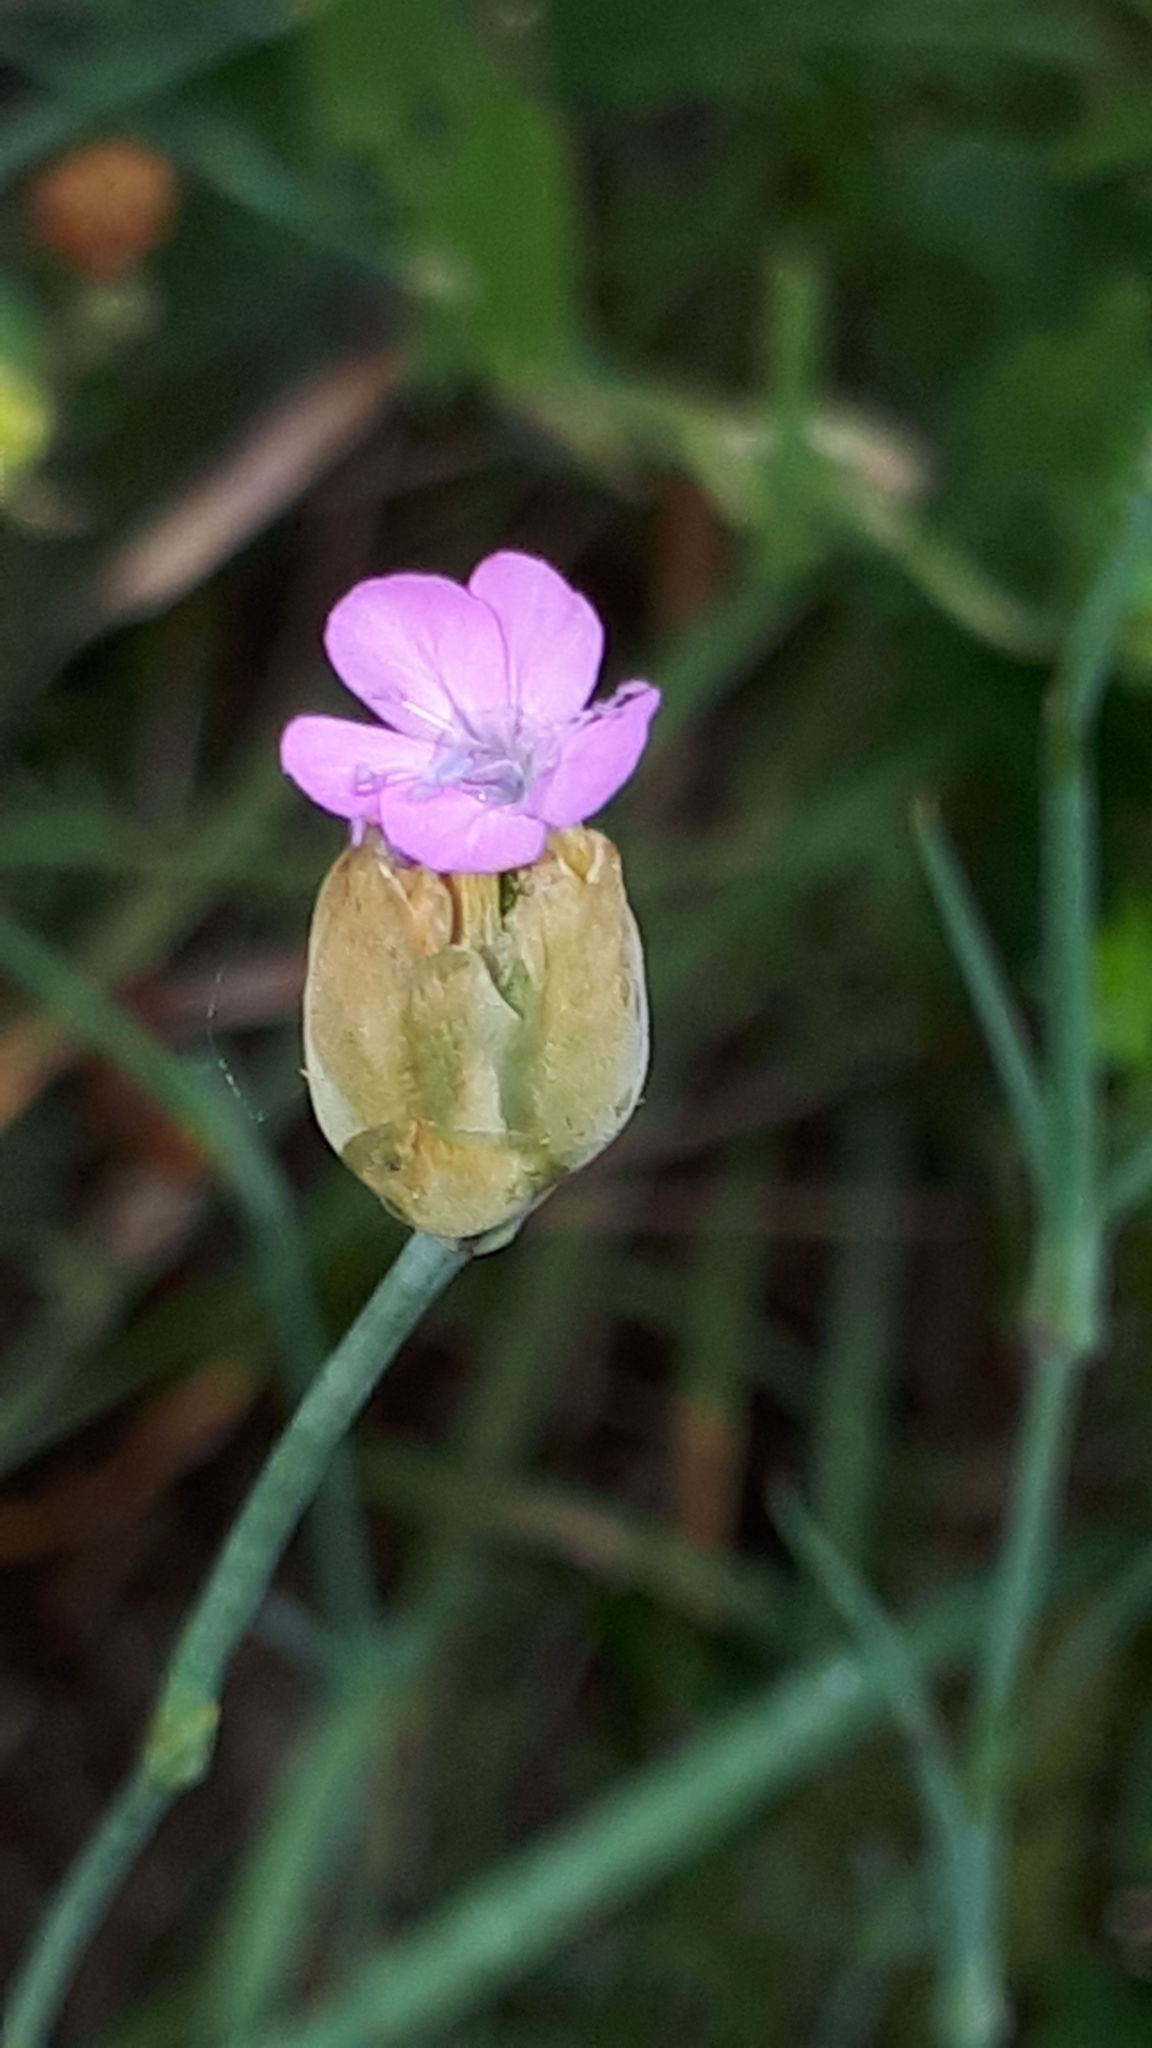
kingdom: Plantae
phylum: Tracheophyta
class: Magnoliopsida
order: Caryophyllales
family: Caryophyllaceae
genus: Petrorhagia
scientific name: Petrorhagia prolifera
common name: Proliferous pink
